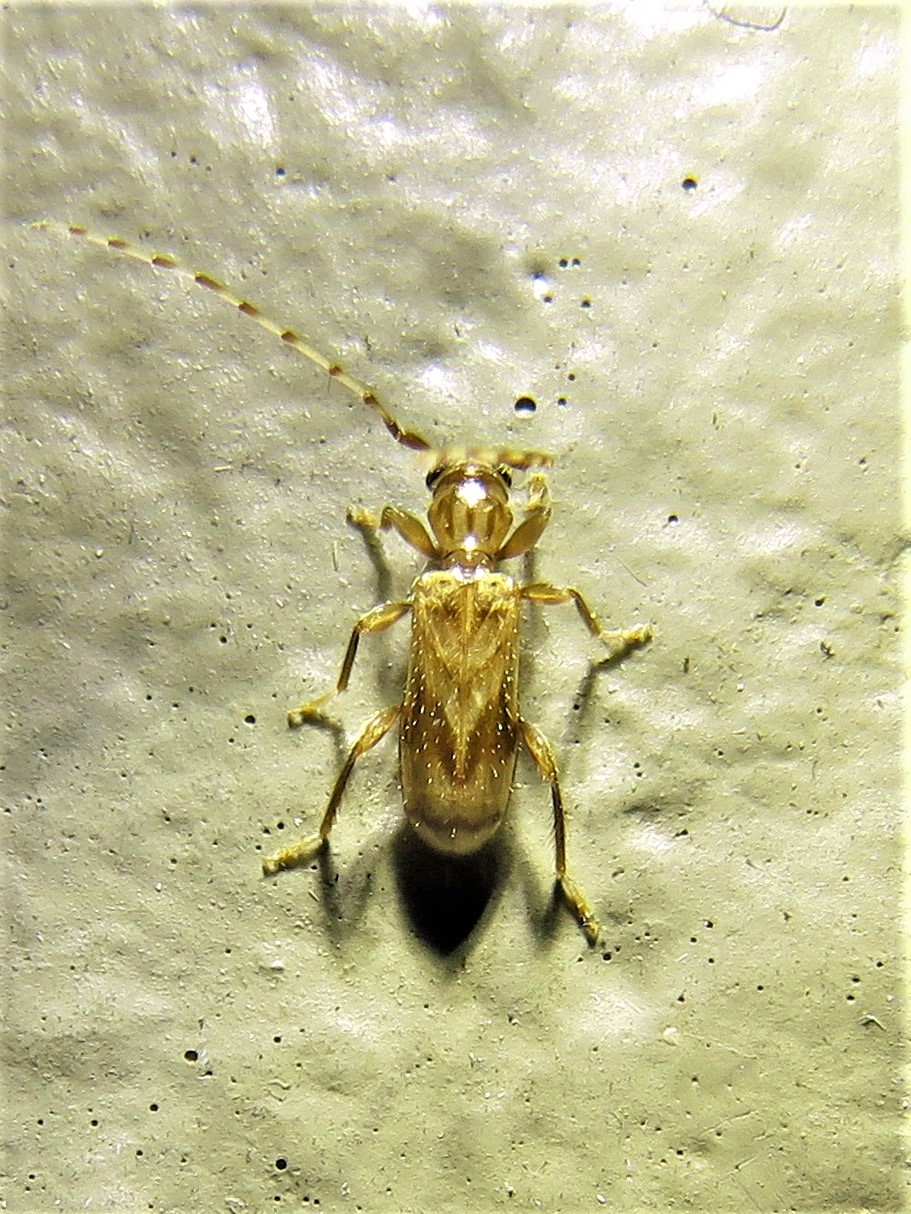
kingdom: Animalia
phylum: Arthropoda
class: Insecta
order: Coleoptera
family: Cerambycidae
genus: Obrium
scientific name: Obrium maculatum
